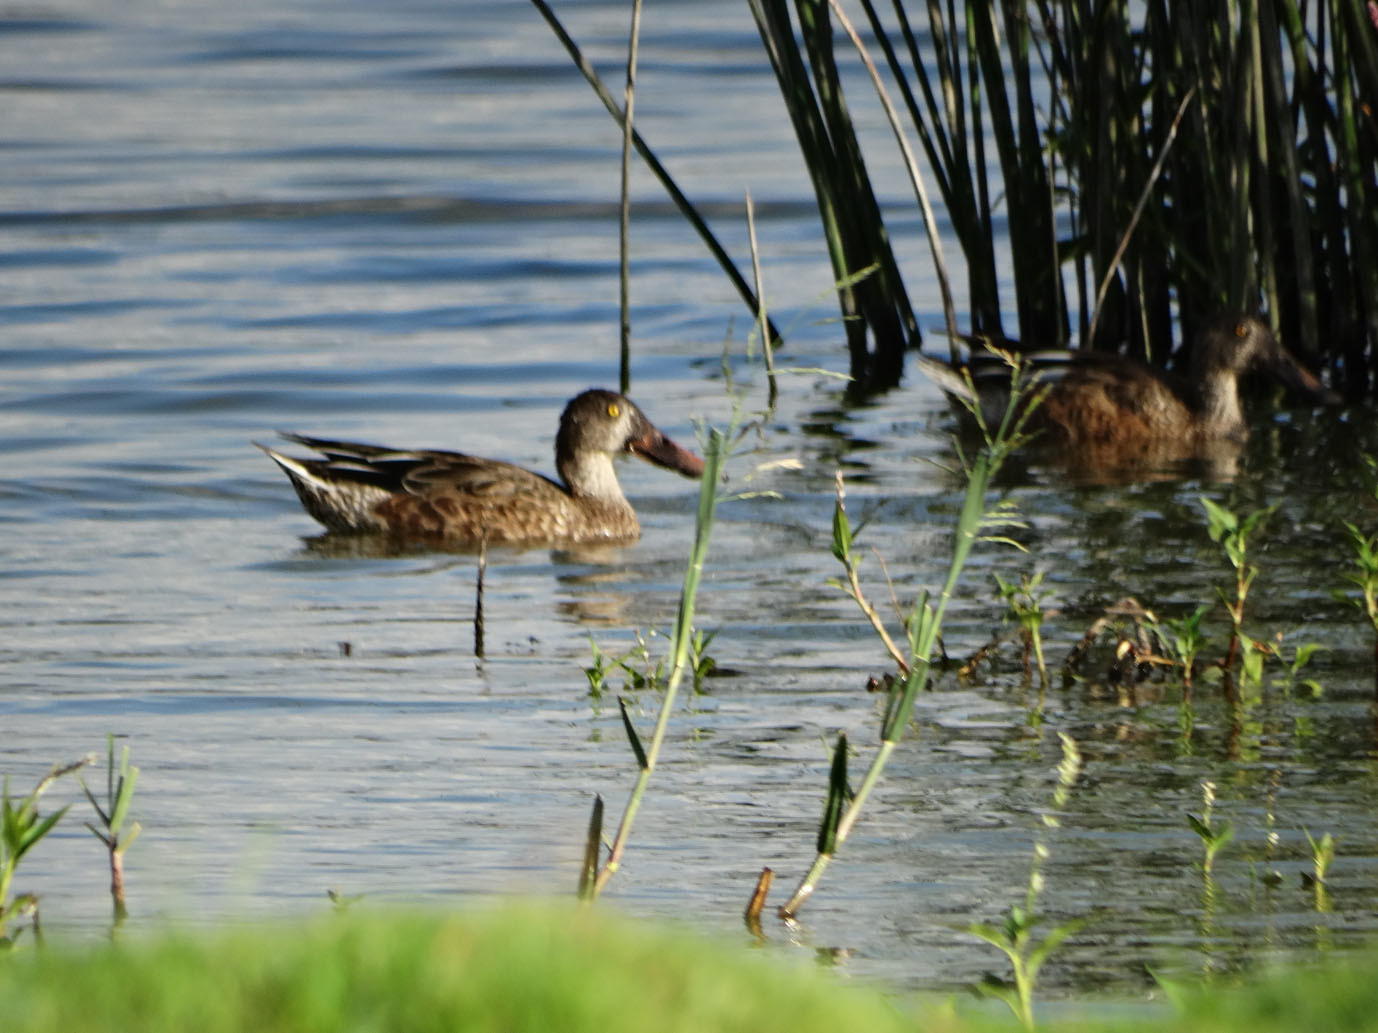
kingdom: Animalia
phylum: Chordata
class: Aves
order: Anseriformes
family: Anatidae
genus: Spatula
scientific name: Spatula clypeata
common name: Northern shoveler
